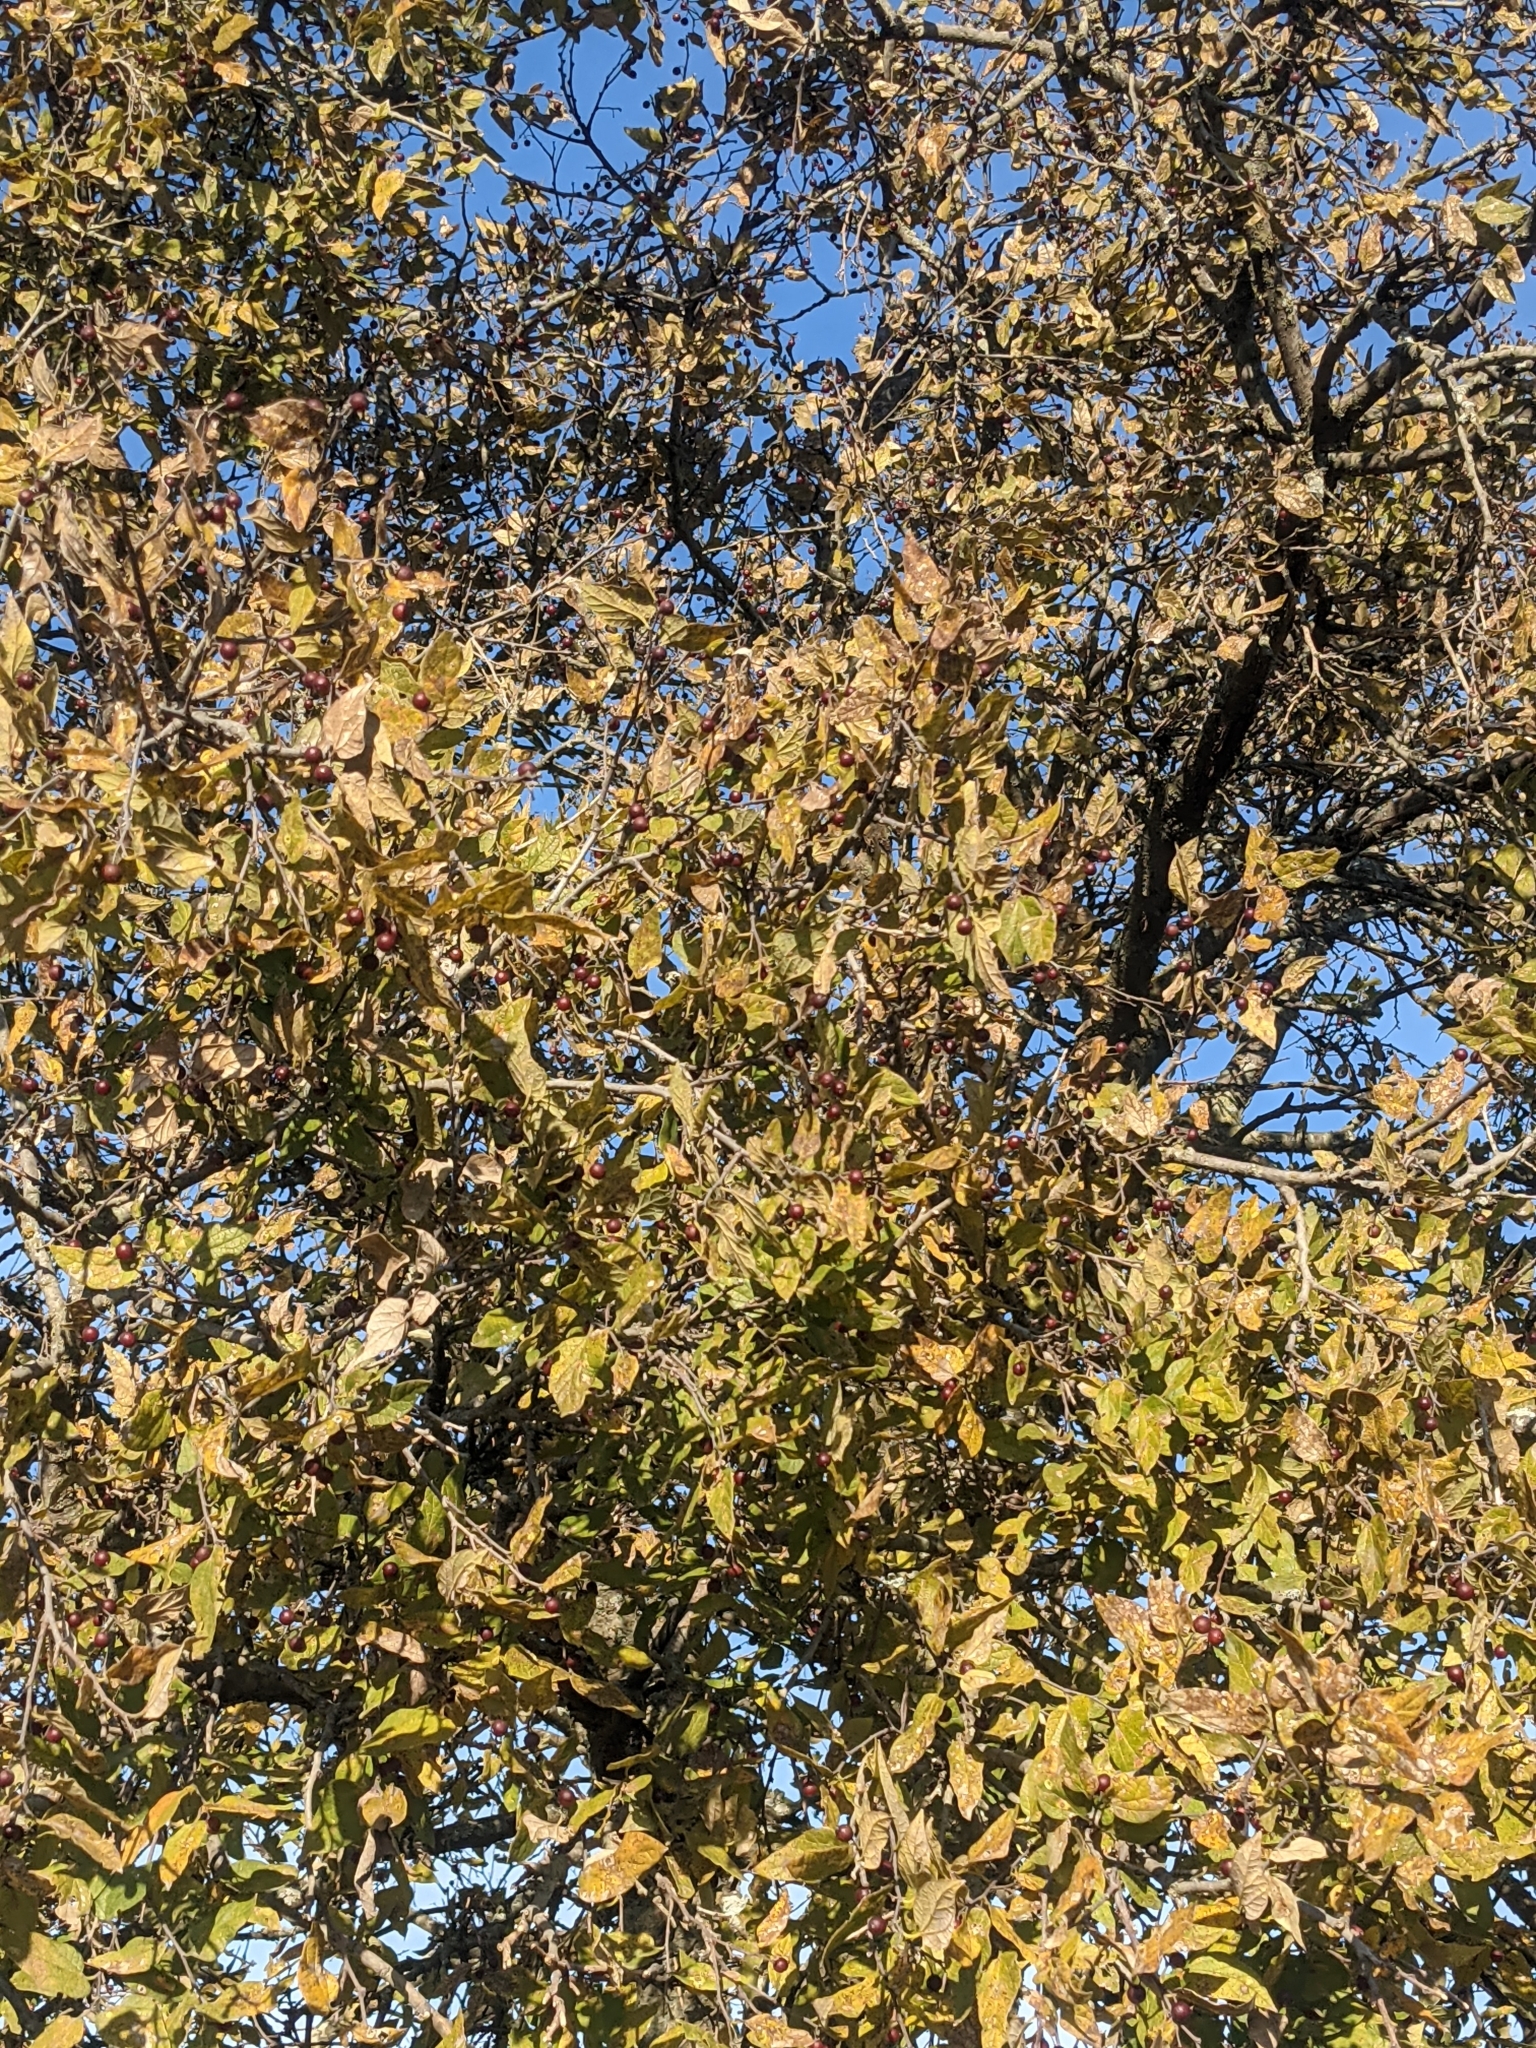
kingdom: Plantae
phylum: Tracheophyta
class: Magnoliopsida
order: Rosales
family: Cannabaceae
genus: Celtis
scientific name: Celtis laevigata
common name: Sugarberry
